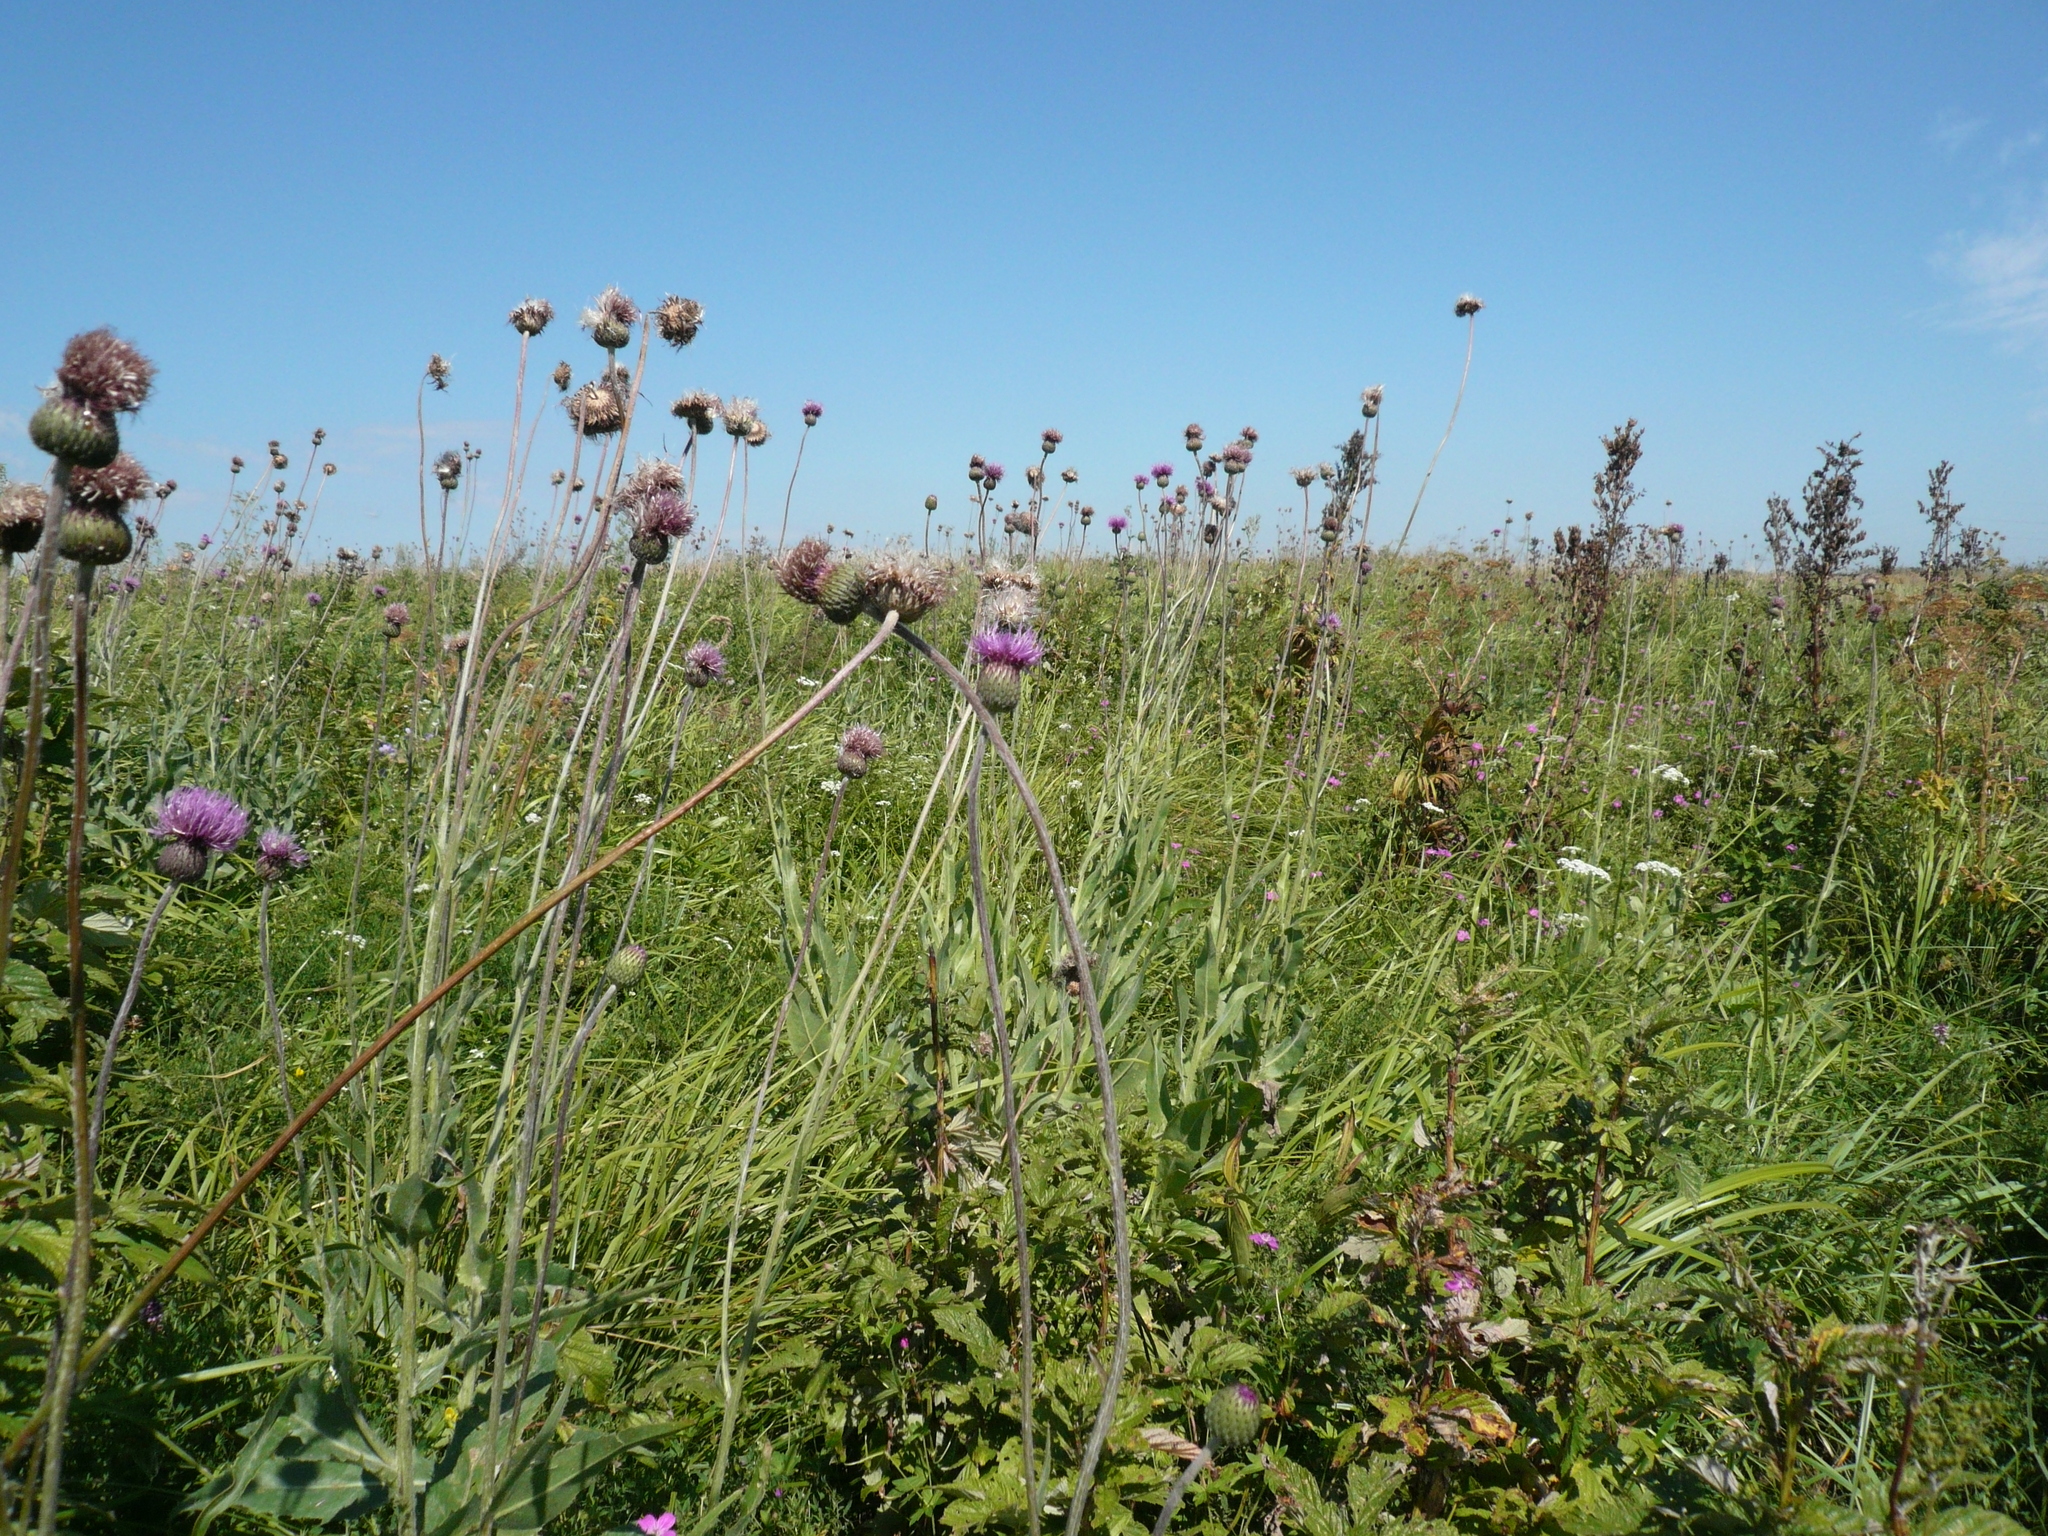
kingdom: Plantae
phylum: Tracheophyta
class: Magnoliopsida
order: Asterales
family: Asteraceae
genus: Cirsium
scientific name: Cirsium canum
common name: Queen anne's thistle
